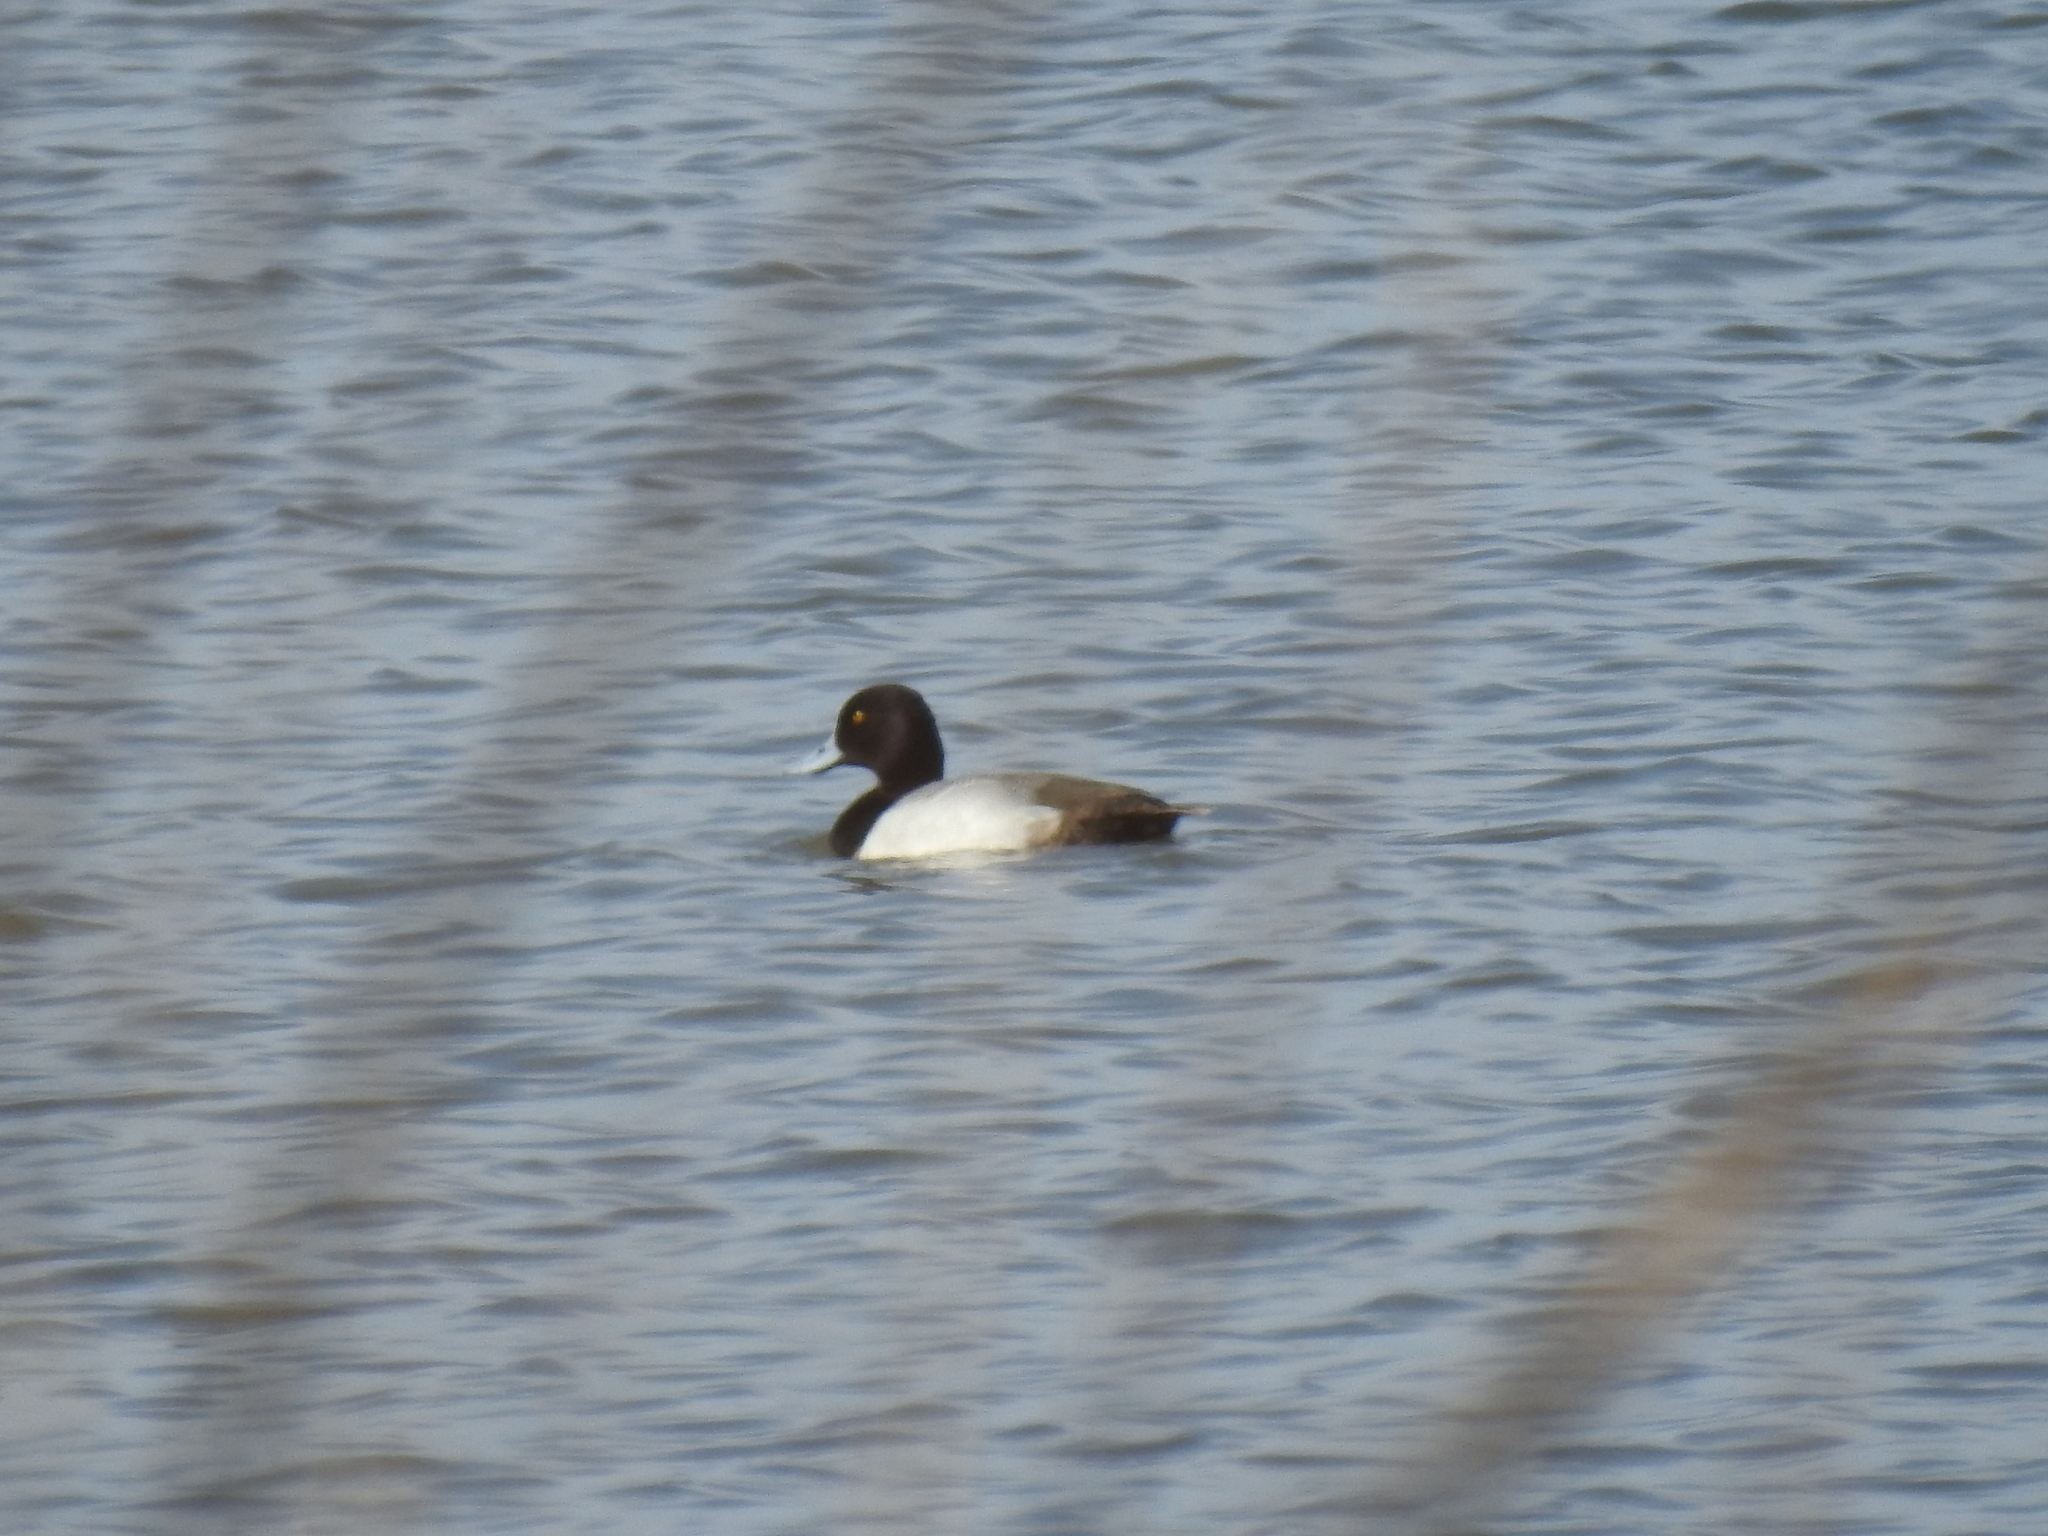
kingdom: Animalia
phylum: Chordata
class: Aves
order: Anseriformes
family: Anatidae
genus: Aythya
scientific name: Aythya affinis
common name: Lesser scaup
